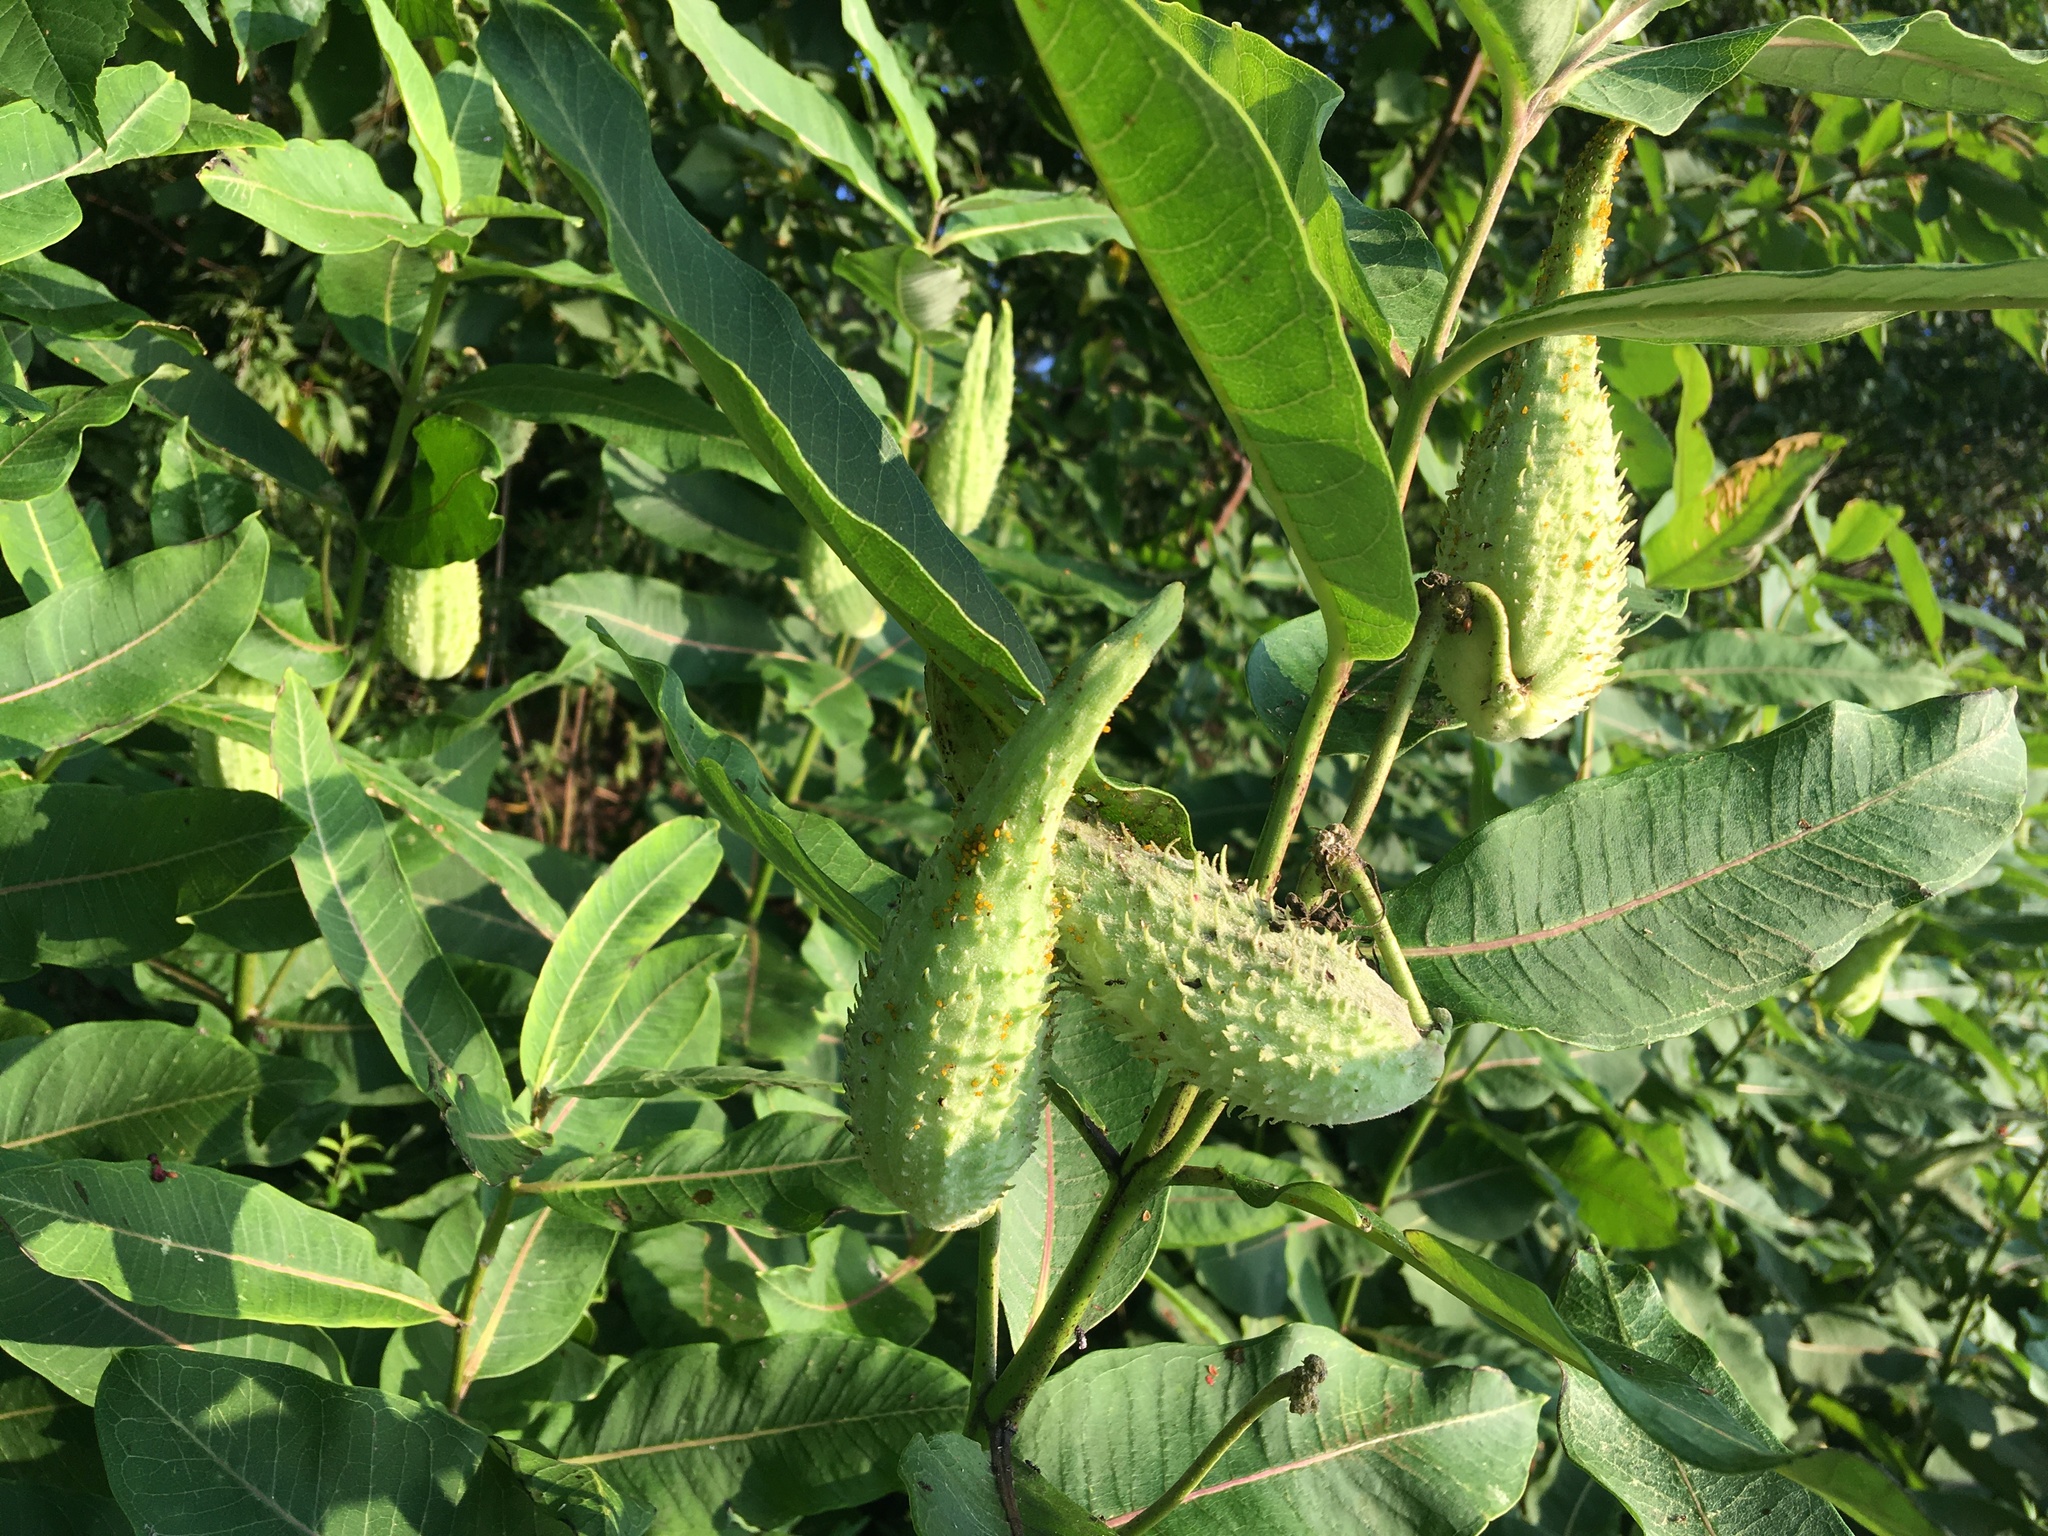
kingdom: Plantae
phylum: Tracheophyta
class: Magnoliopsida
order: Gentianales
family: Apocynaceae
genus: Asclepias
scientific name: Asclepias syriaca
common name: Common milkweed
